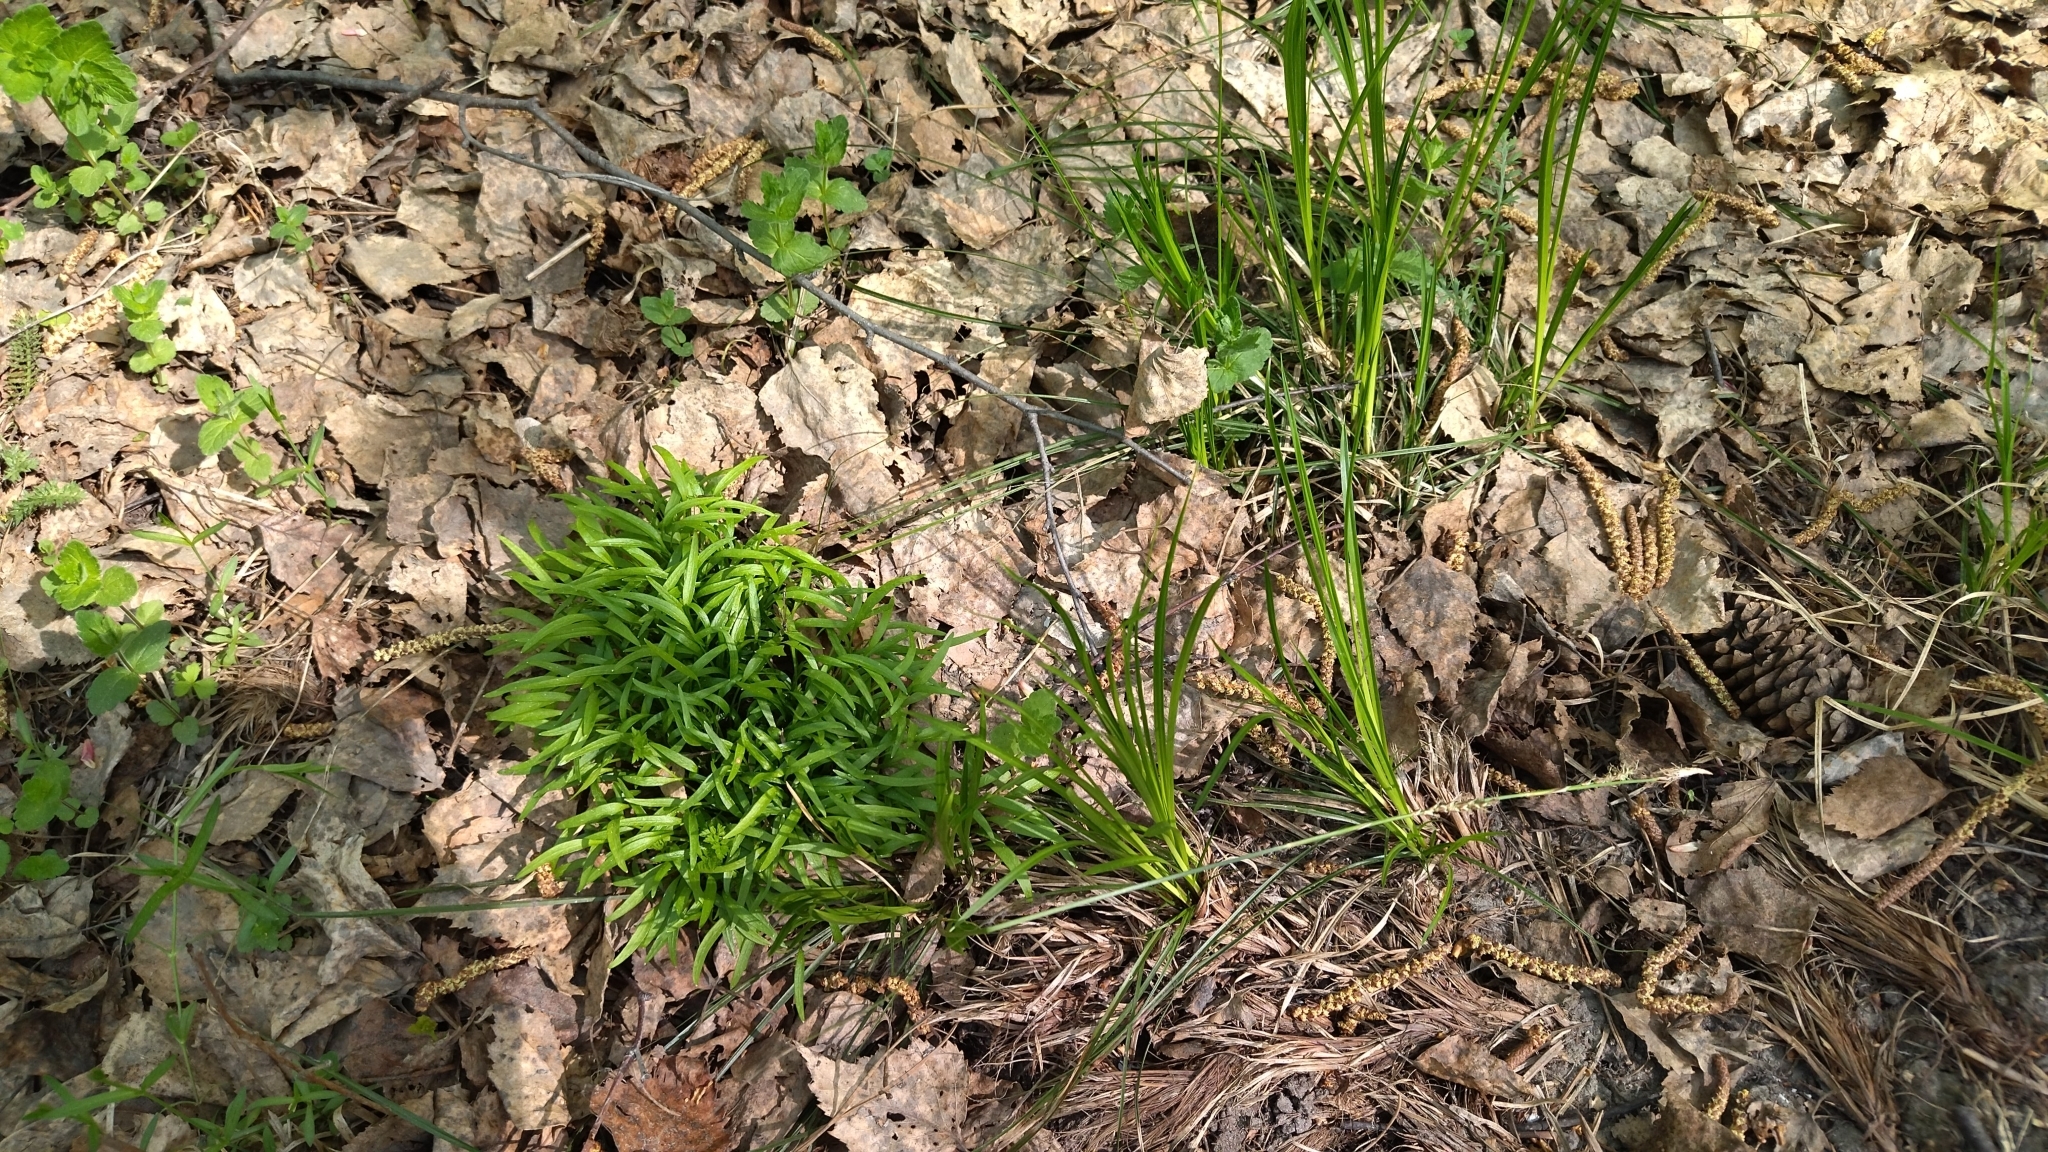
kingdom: Plantae
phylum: Tracheophyta
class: Liliopsida
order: Asparagales
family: Amaryllidaceae
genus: Allium
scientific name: Allium paradoxum
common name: Few-flowered garlic
